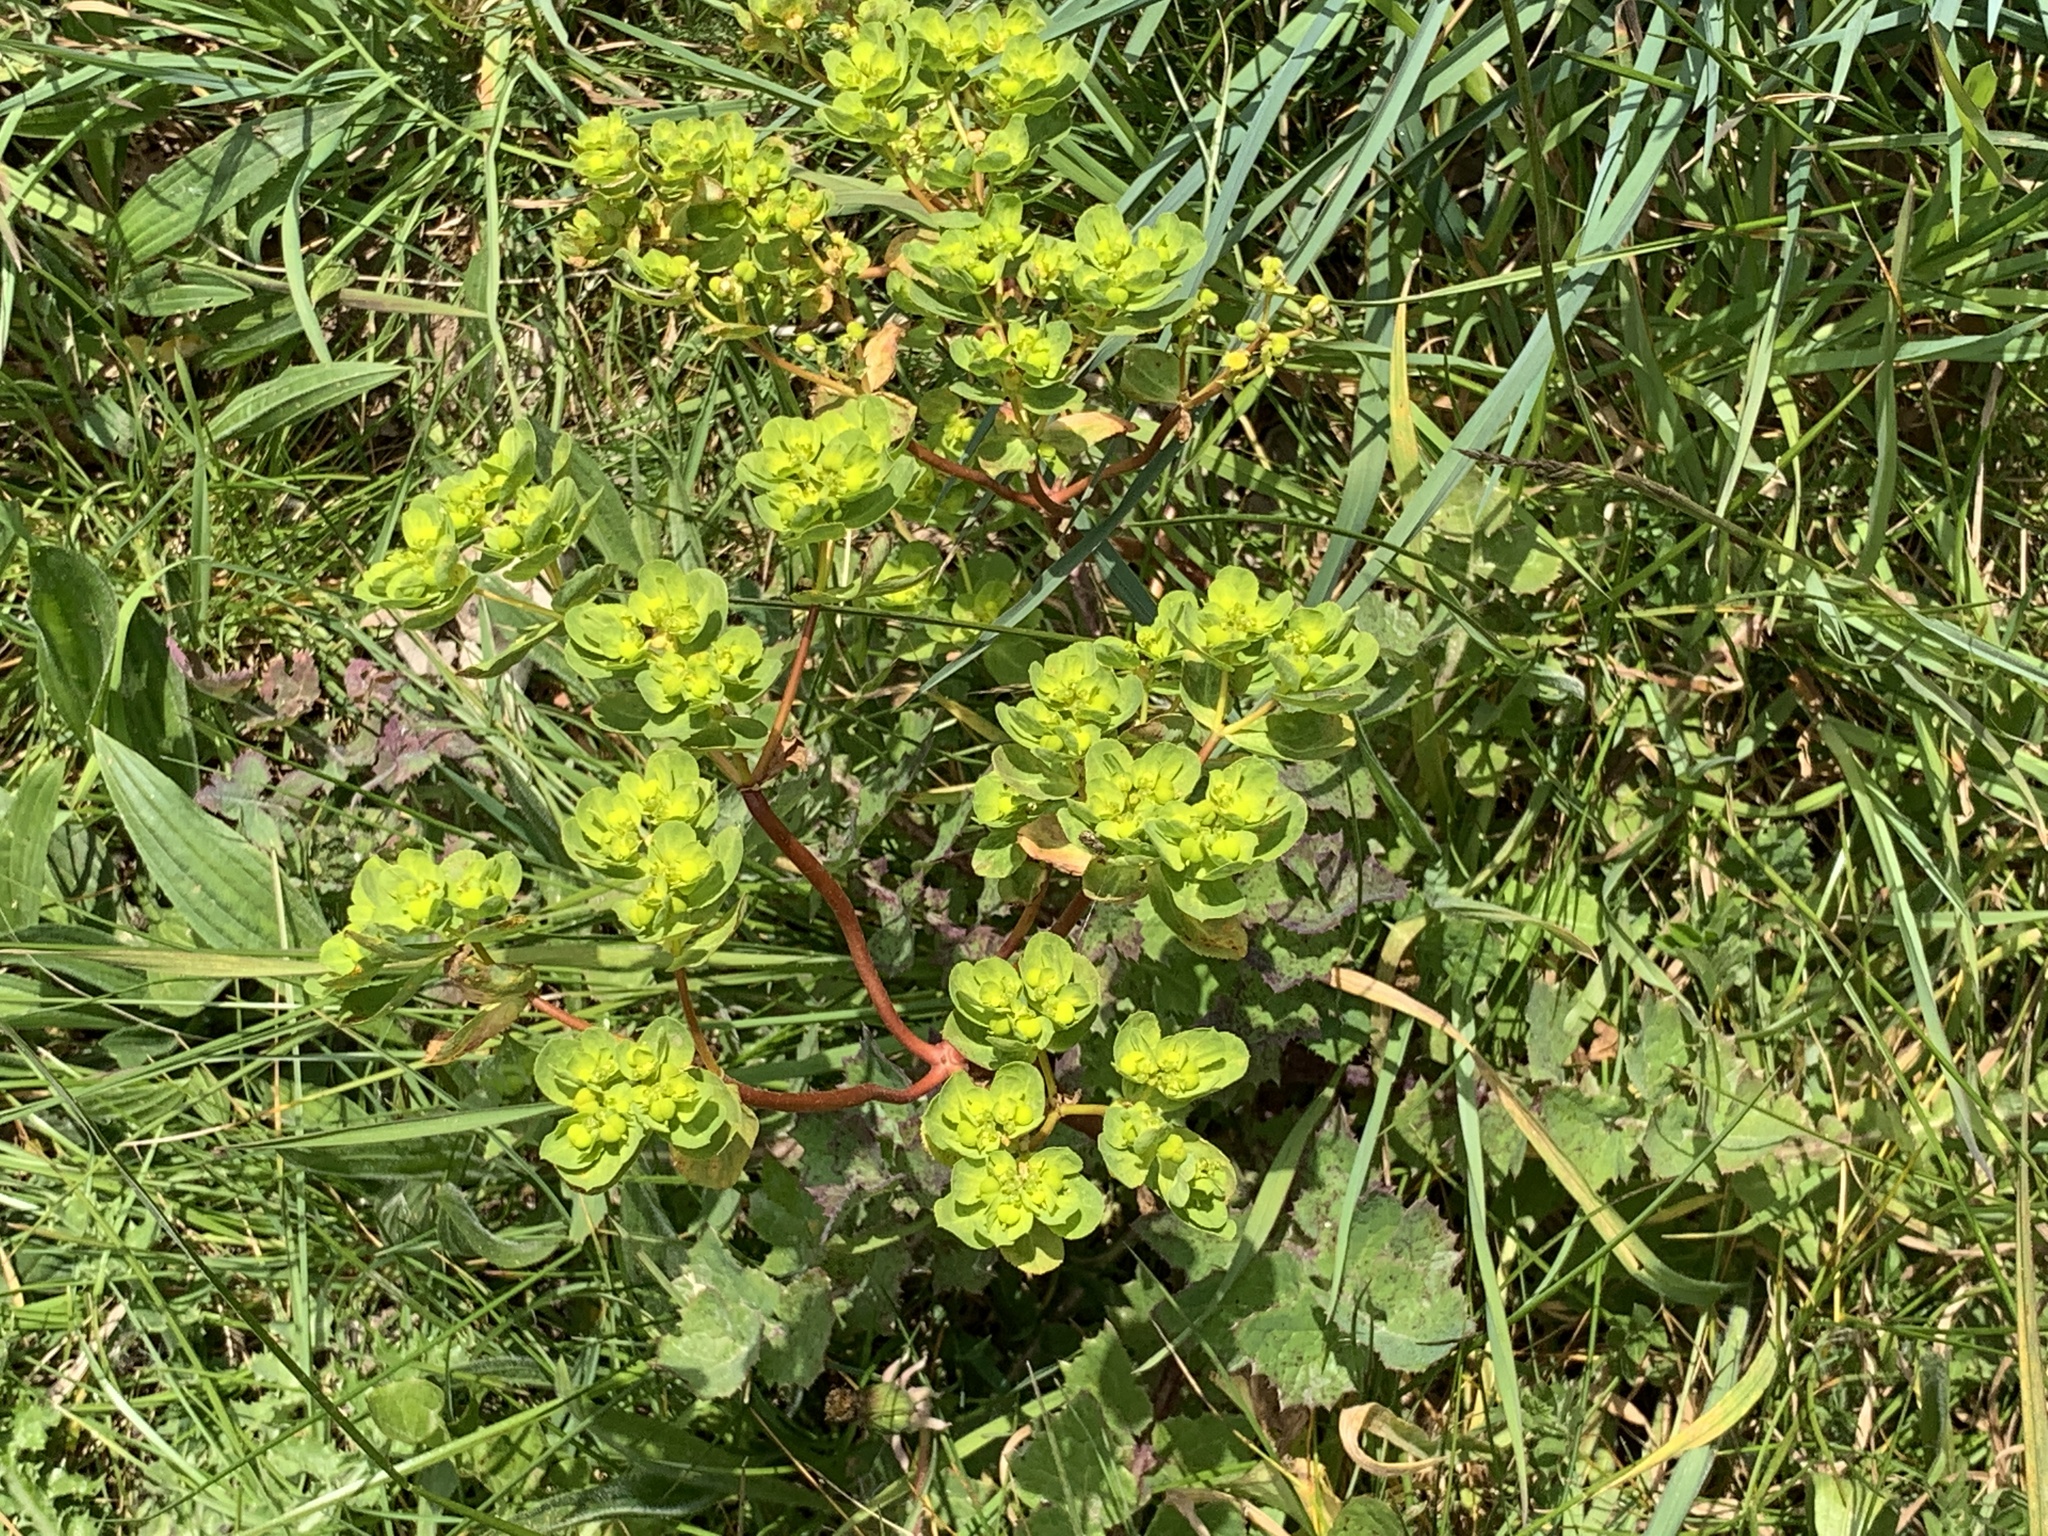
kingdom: Plantae
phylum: Tracheophyta
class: Magnoliopsida
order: Malpighiales
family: Euphorbiaceae
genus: Euphorbia
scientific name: Euphorbia helioscopia
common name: Sun spurge
